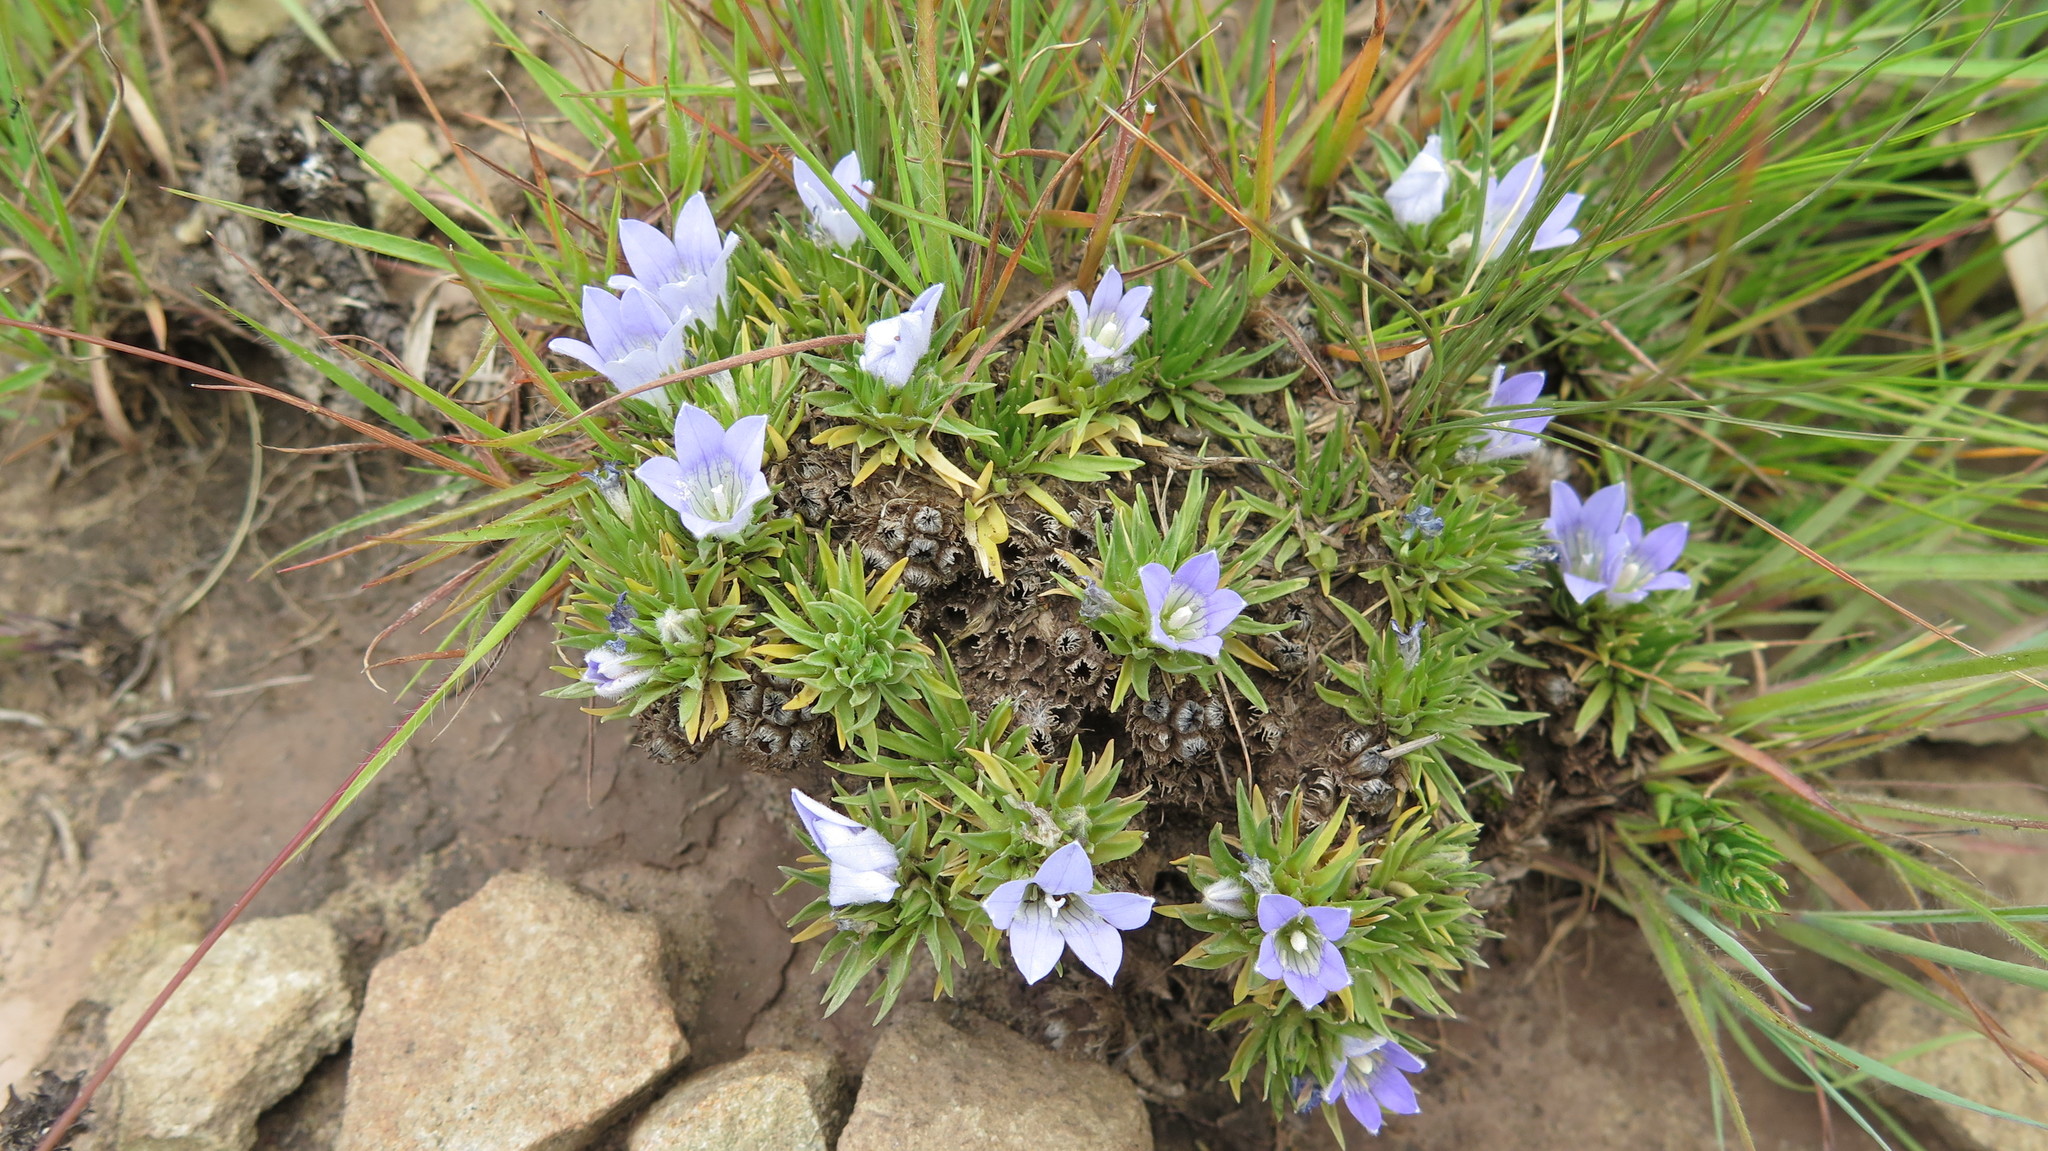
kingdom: Plantae
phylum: Tracheophyta
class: Magnoliopsida
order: Asterales
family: Campanulaceae
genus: Craterocapsa
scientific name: Craterocapsa tarsodes
